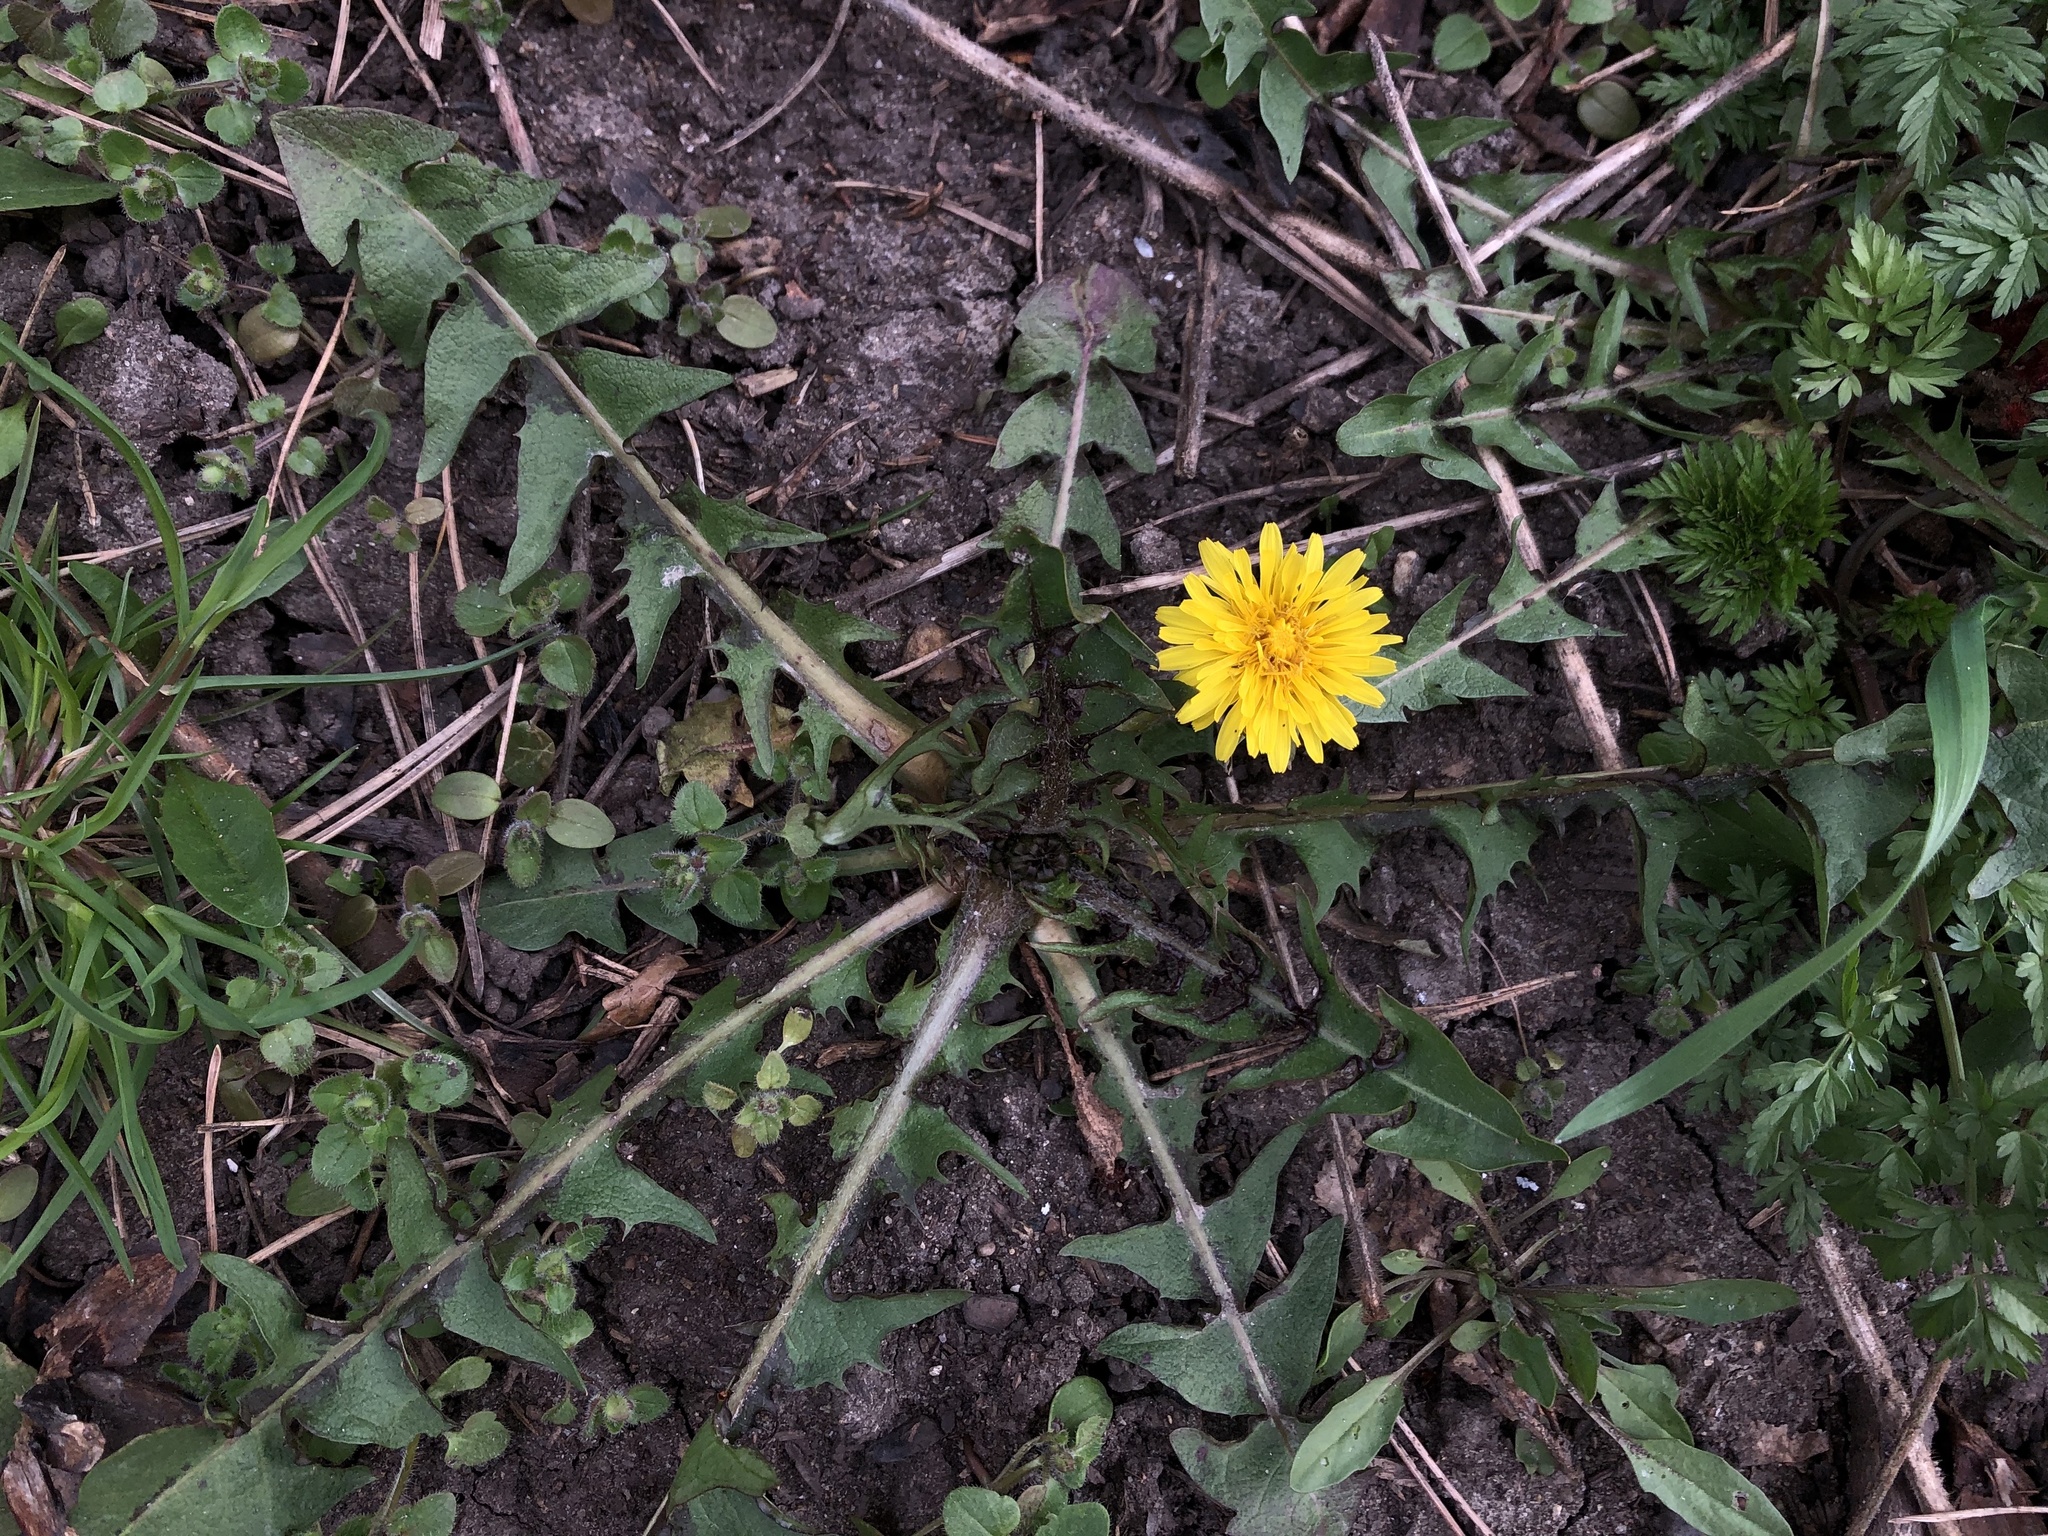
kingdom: Plantae
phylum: Tracheophyta
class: Magnoliopsida
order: Asterales
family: Asteraceae
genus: Taraxacum
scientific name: Taraxacum officinale
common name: Common dandelion
